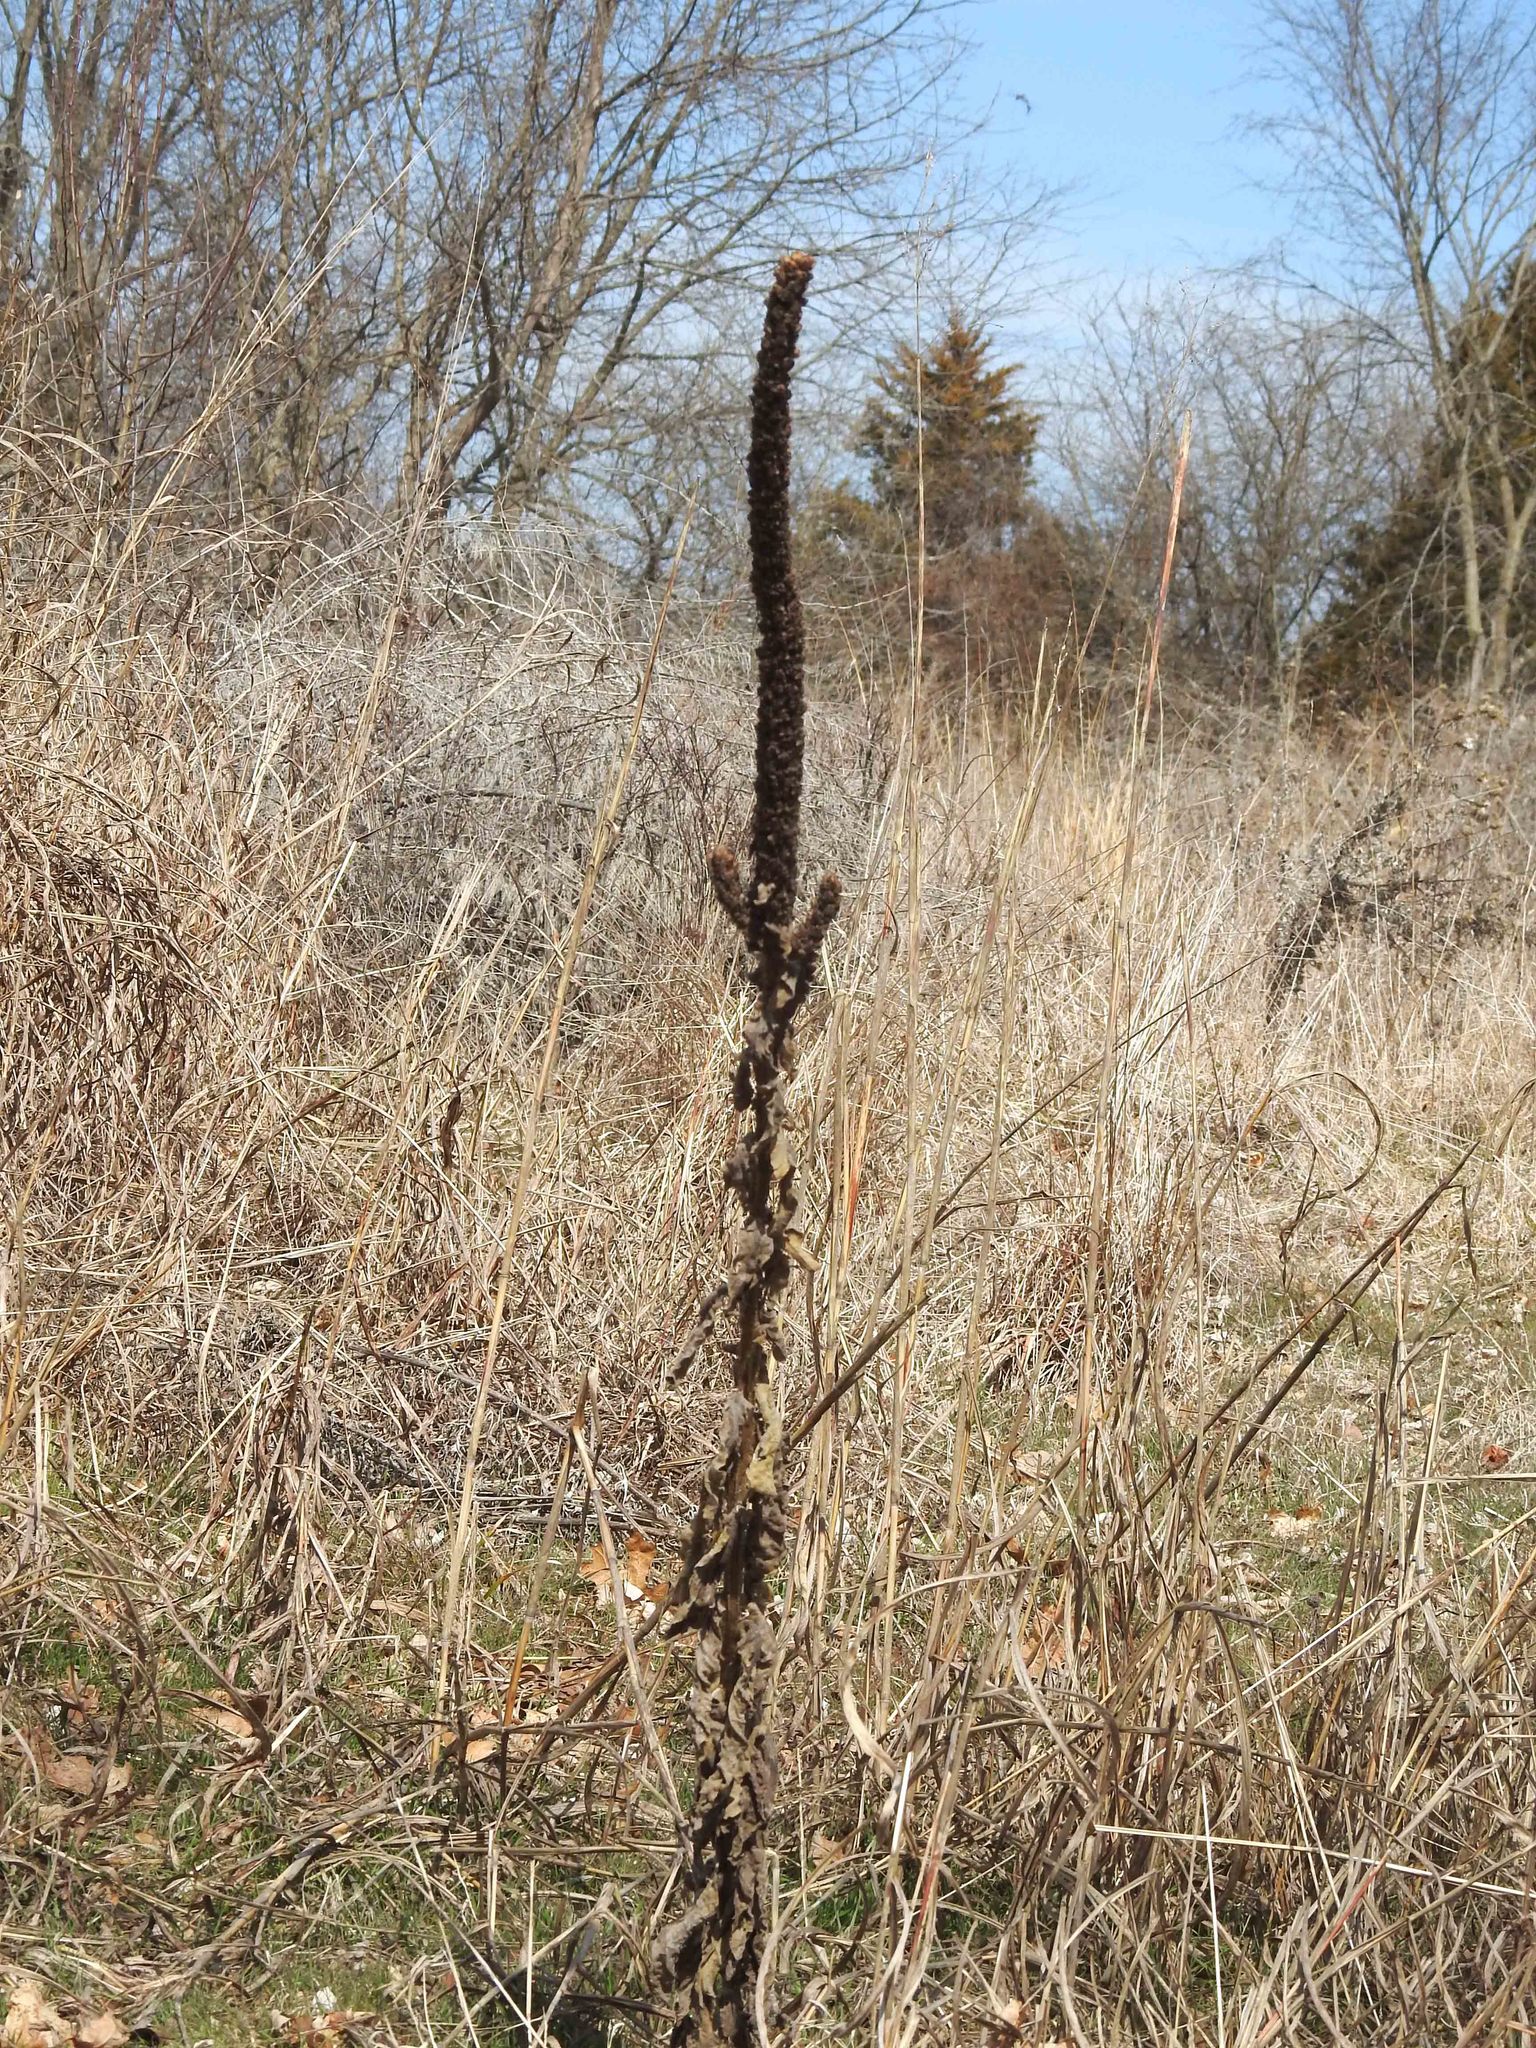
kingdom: Plantae
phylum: Tracheophyta
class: Magnoliopsida
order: Lamiales
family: Scrophulariaceae
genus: Verbascum
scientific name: Verbascum thapsus
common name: Common mullein
